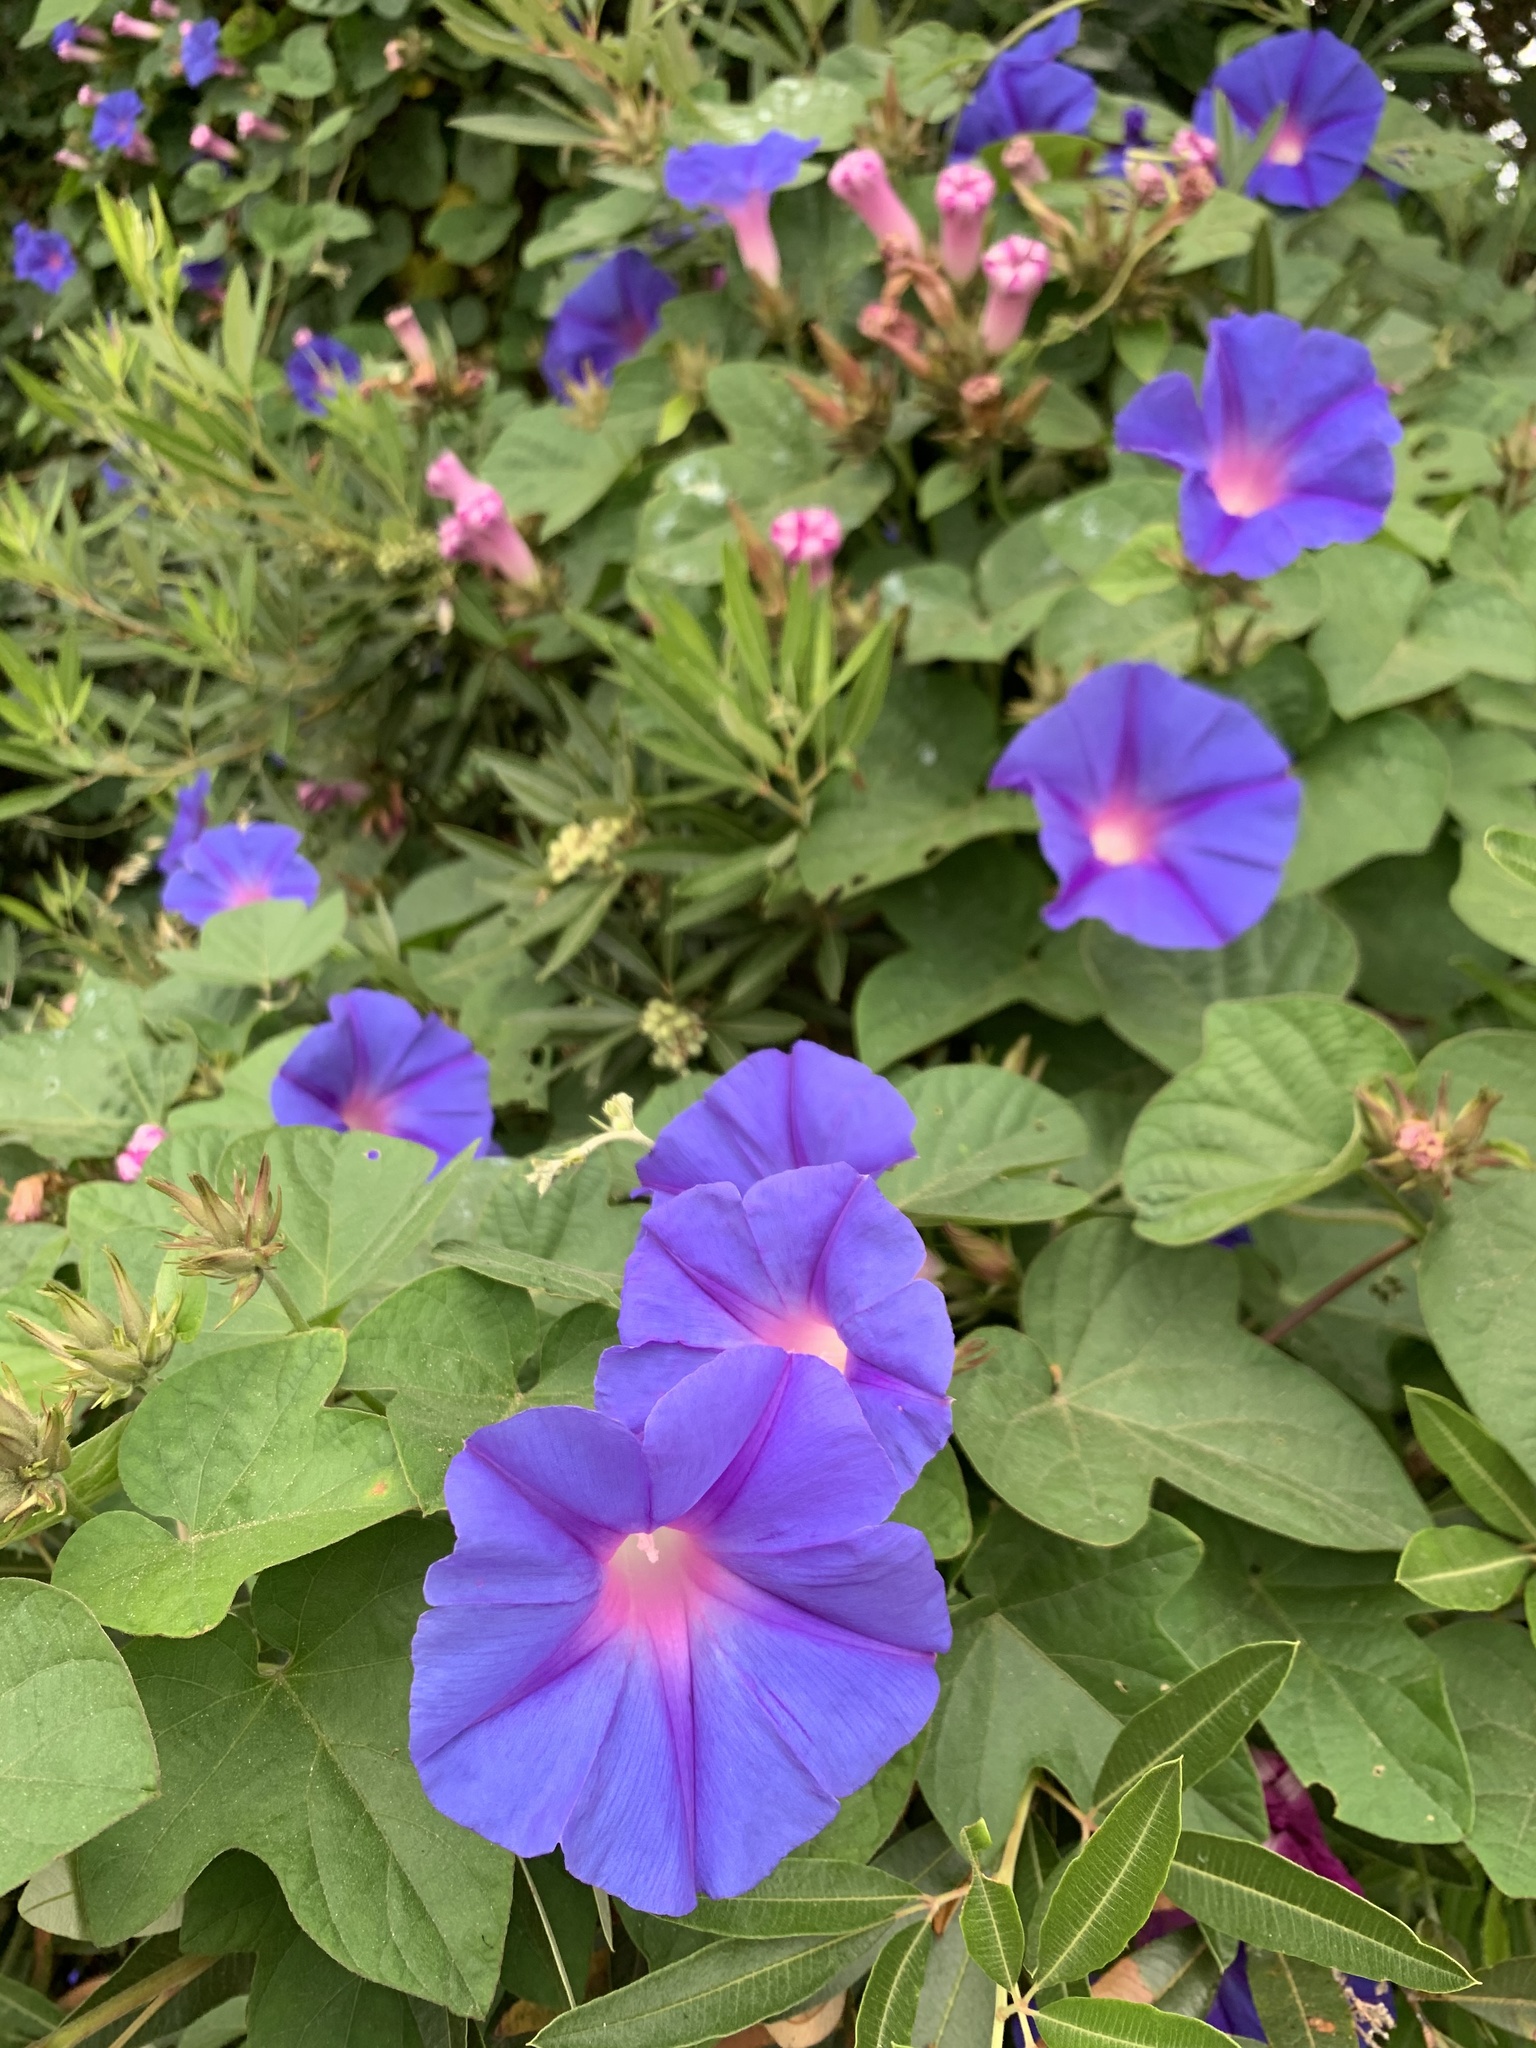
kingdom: Plantae
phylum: Tracheophyta
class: Magnoliopsida
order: Solanales
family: Convolvulaceae
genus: Ipomoea
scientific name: Ipomoea indica
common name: Blue dawnflower
